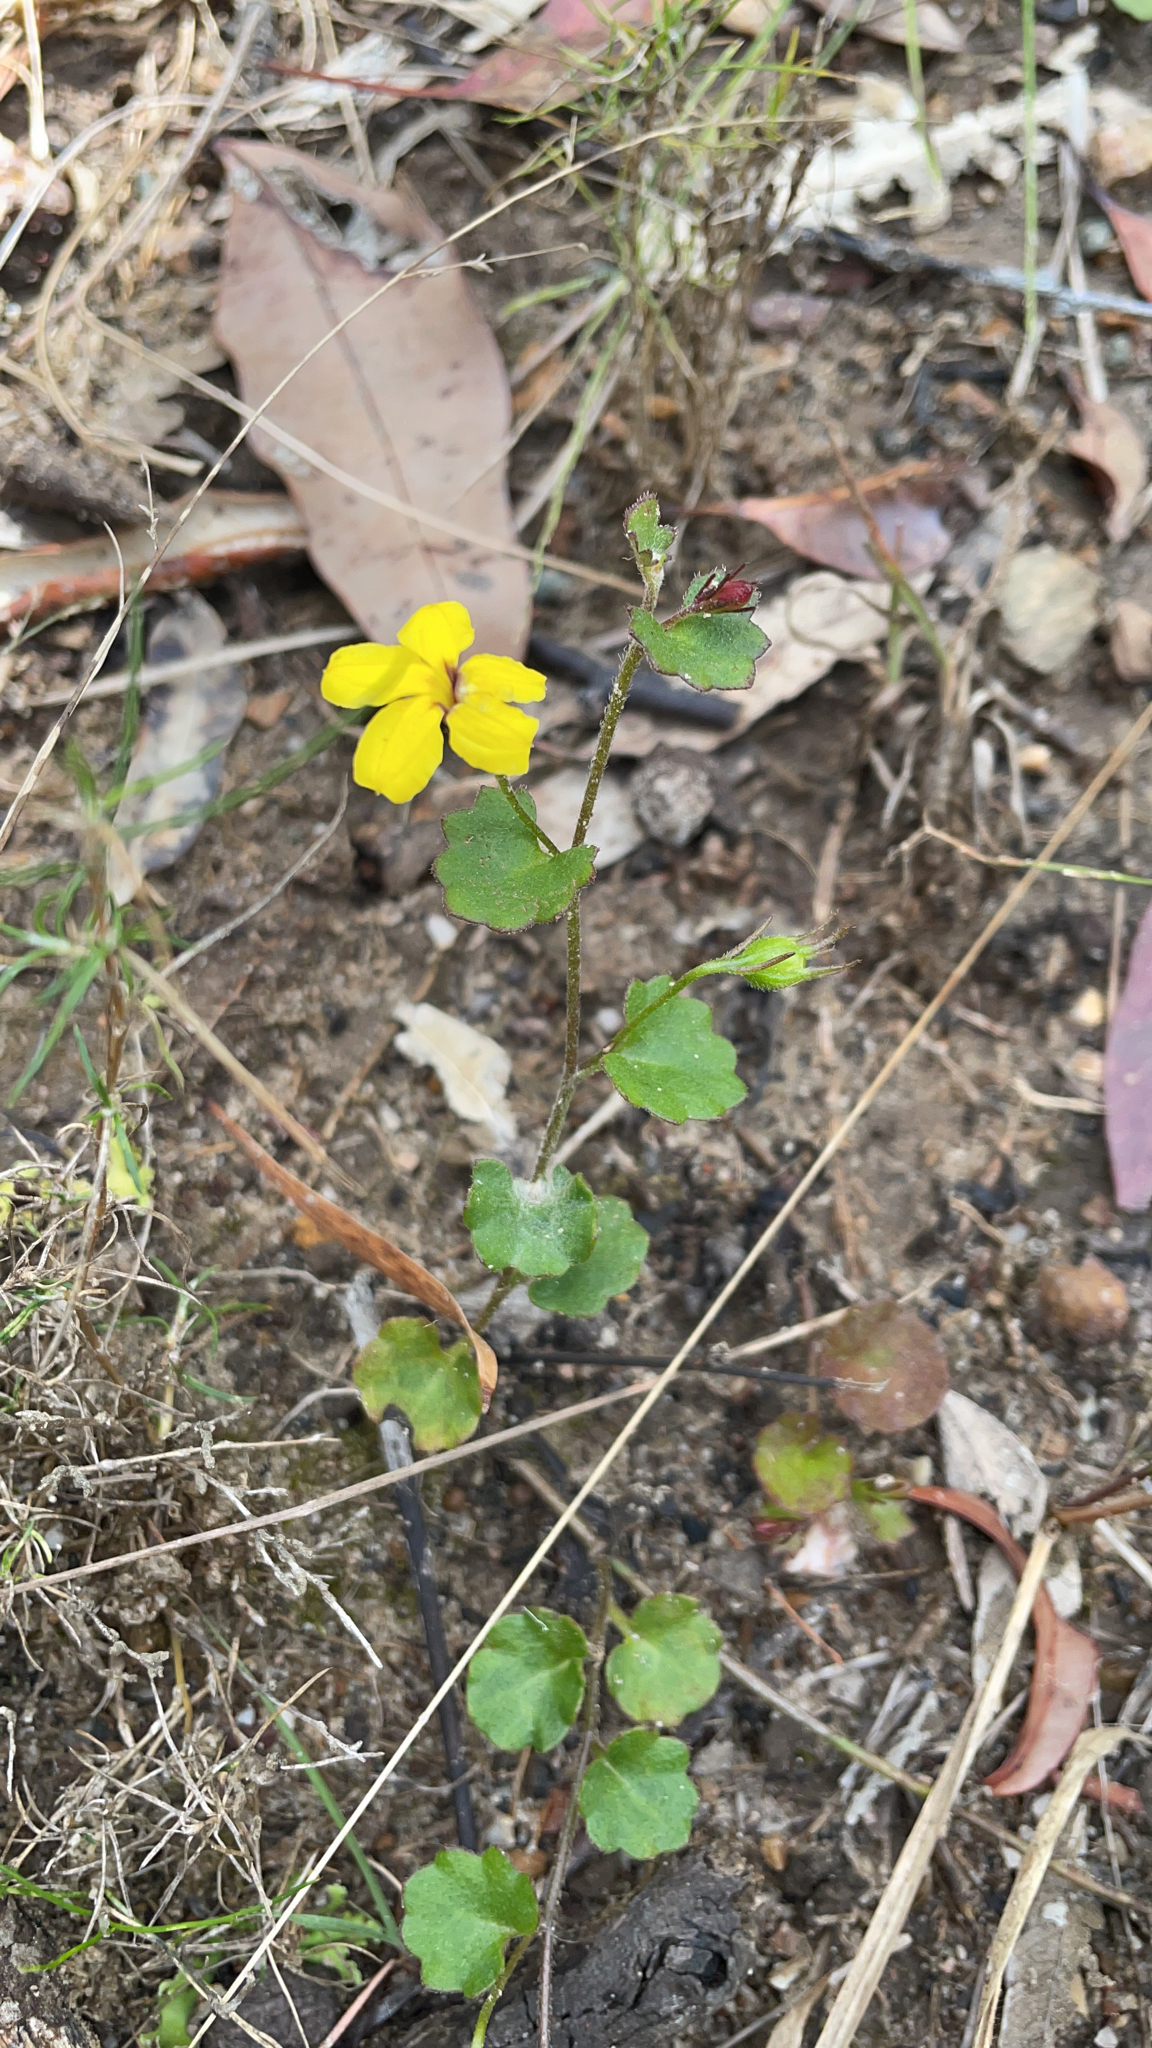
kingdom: Plantae
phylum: Tracheophyta
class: Magnoliopsida
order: Asterales
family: Goodeniaceae
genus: Goodenia
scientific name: Goodenia rotundifolia
